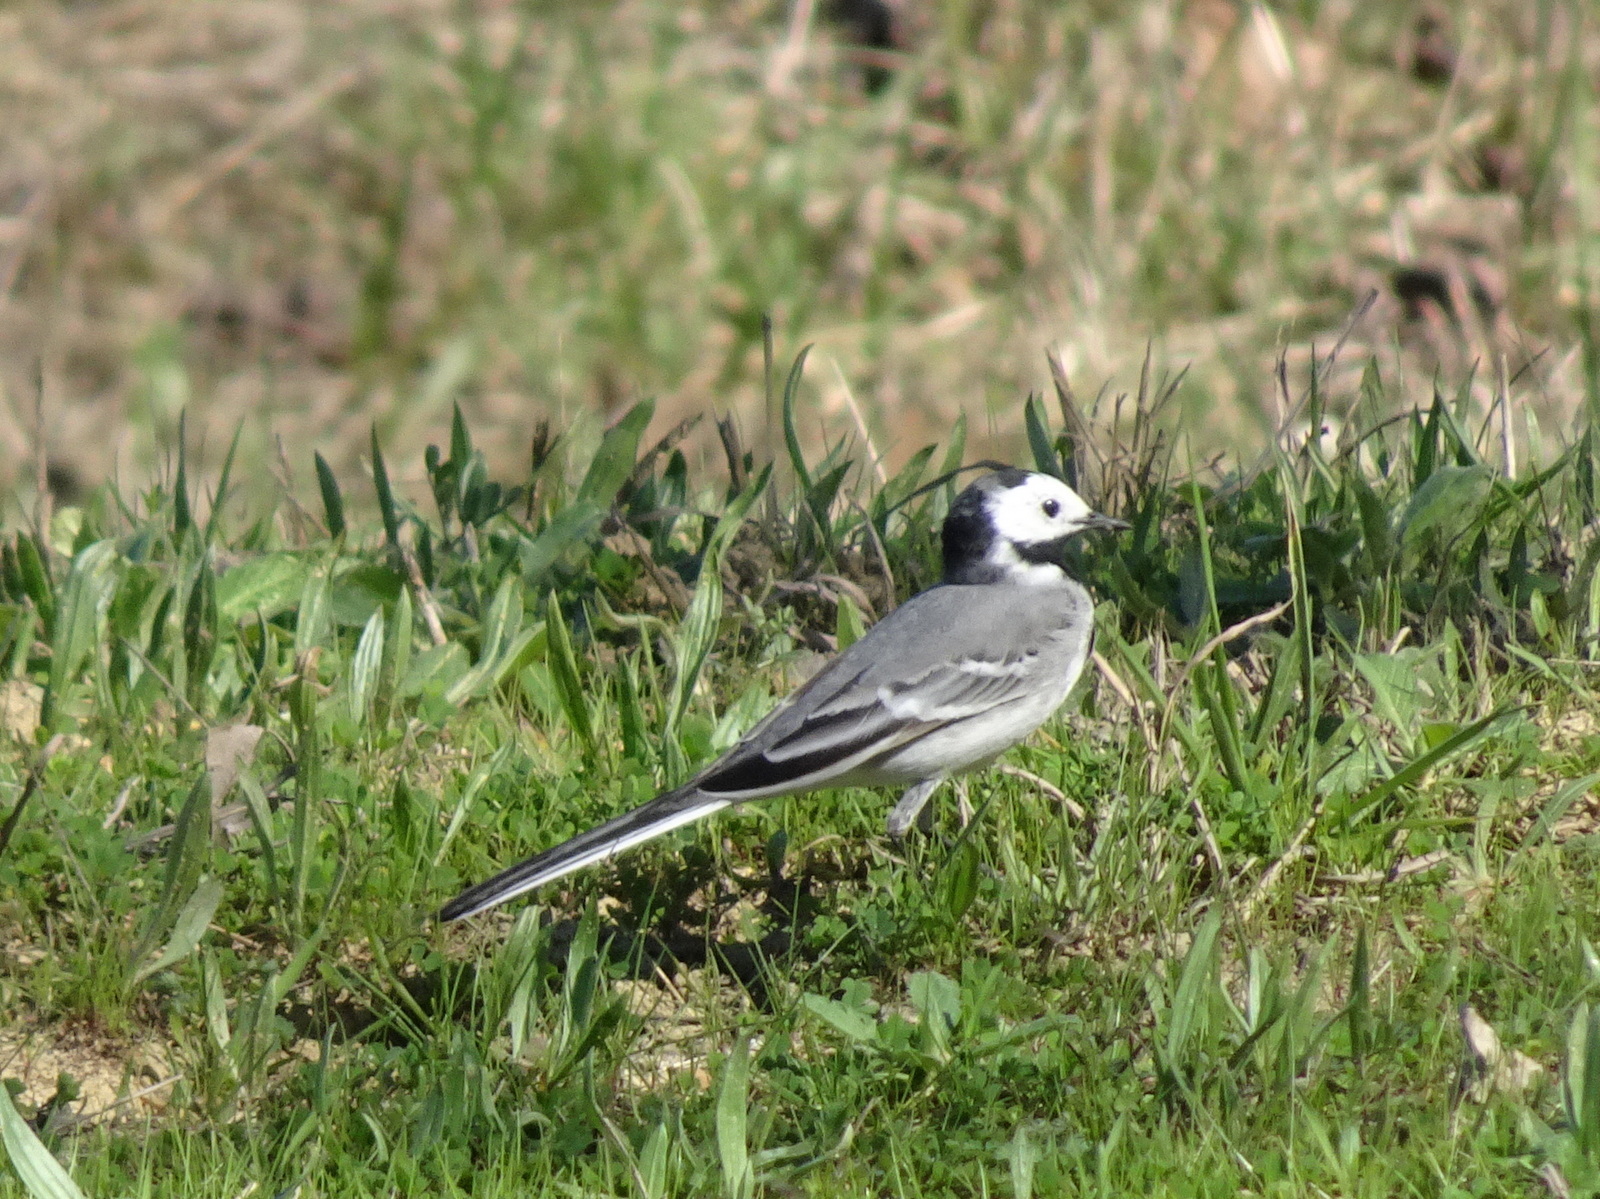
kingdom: Animalia
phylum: Chordata
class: Aves
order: Passeriformes
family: Motacillidae
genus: Motacilla
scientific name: Motacilla alba
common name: White wagtail
